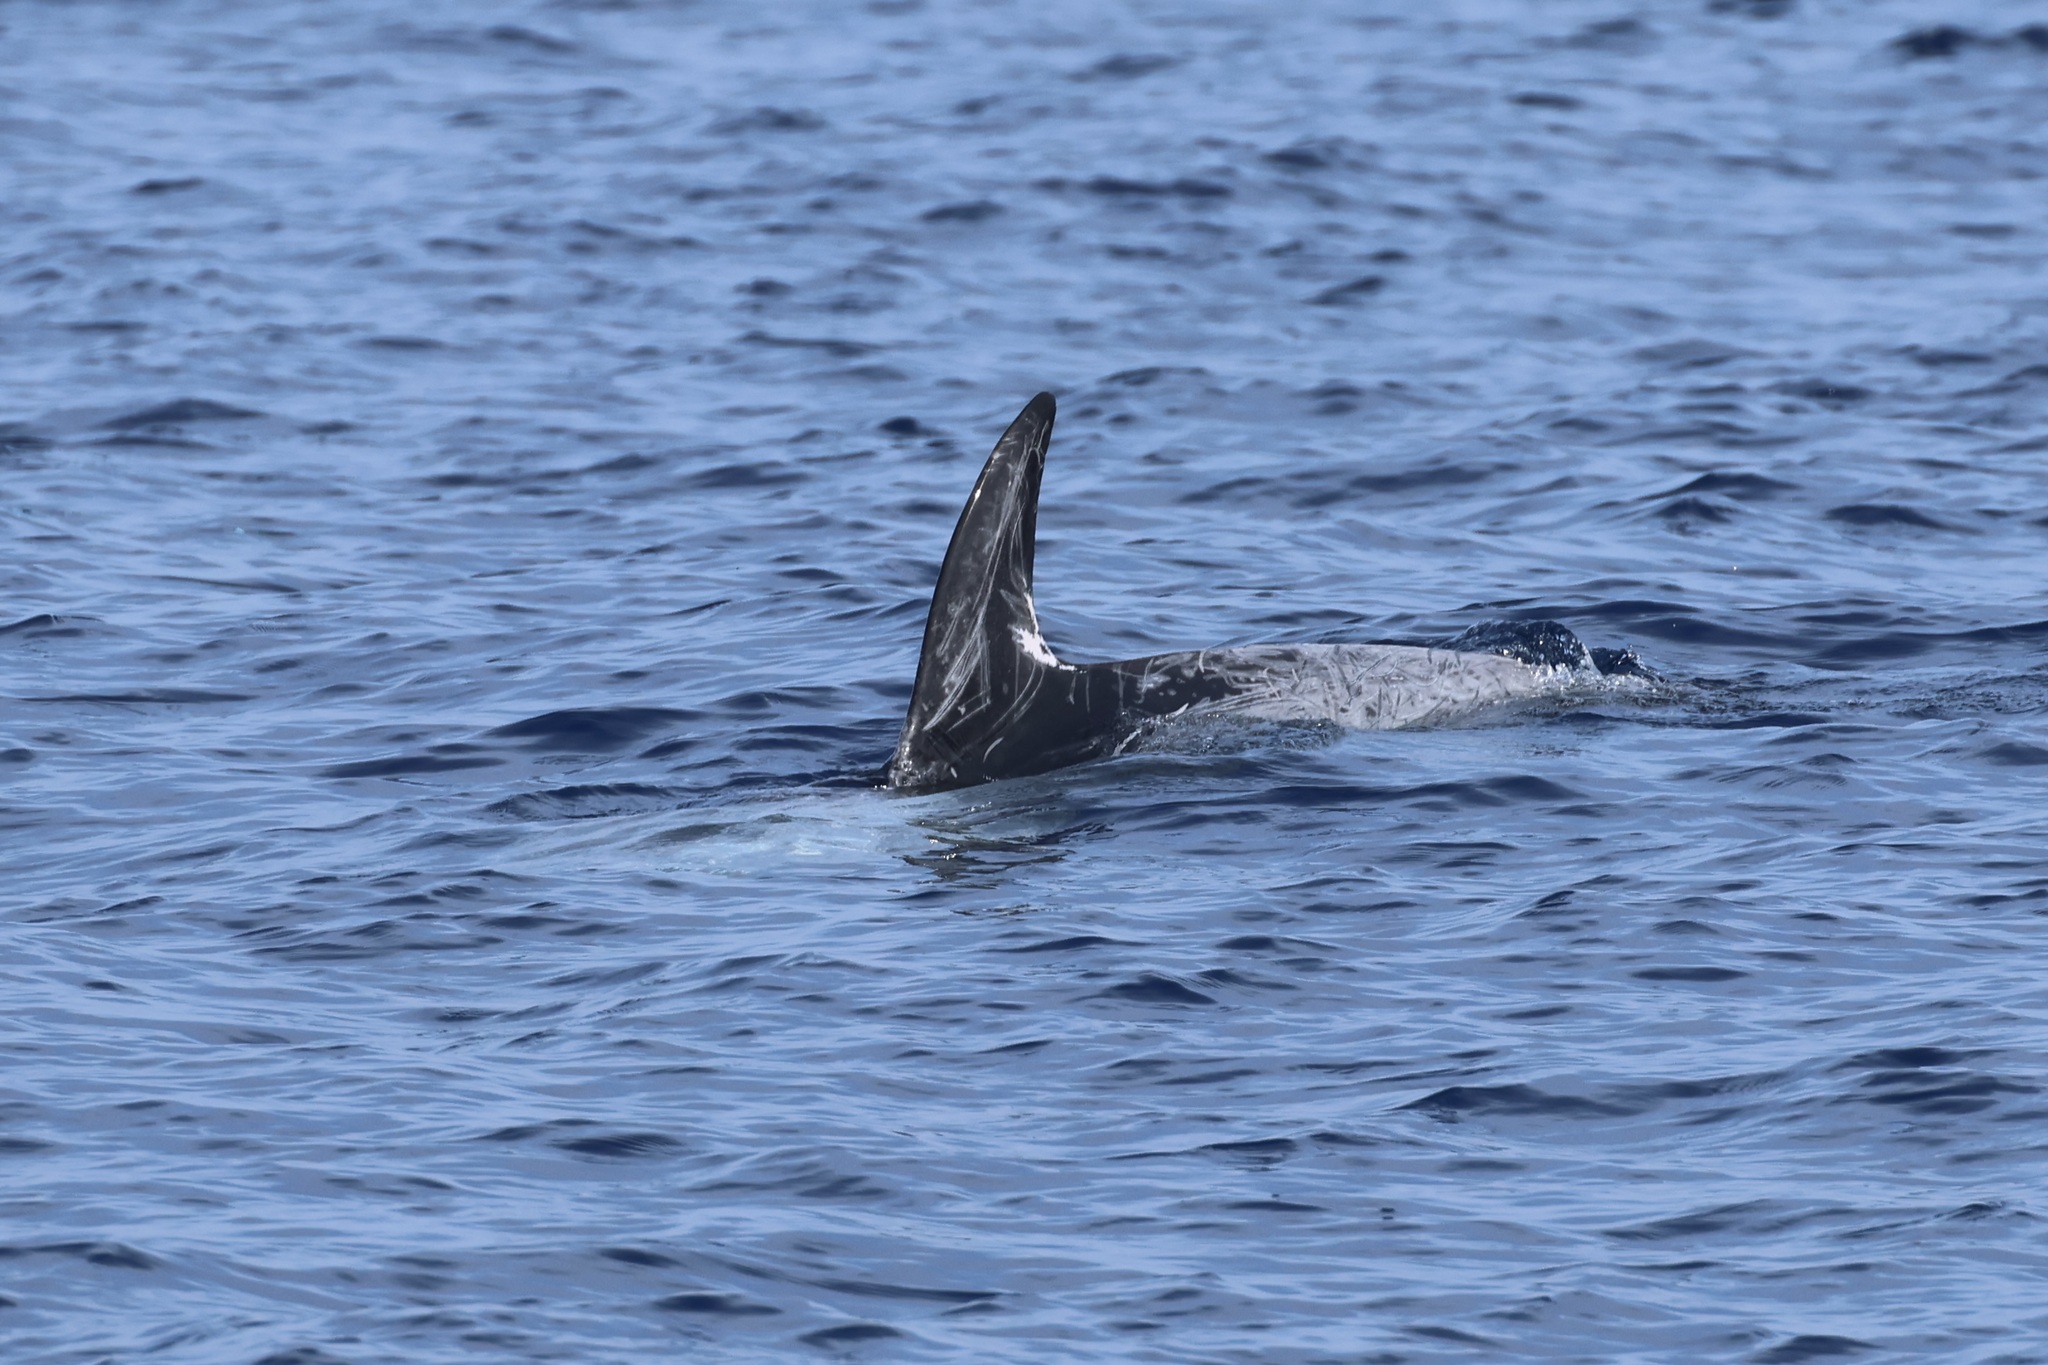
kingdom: Animalia
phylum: Chordata
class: Mammalia
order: Cetacea
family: Delphinidae
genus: Grampus
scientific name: Grampus griseus
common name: Risso's dolphin
